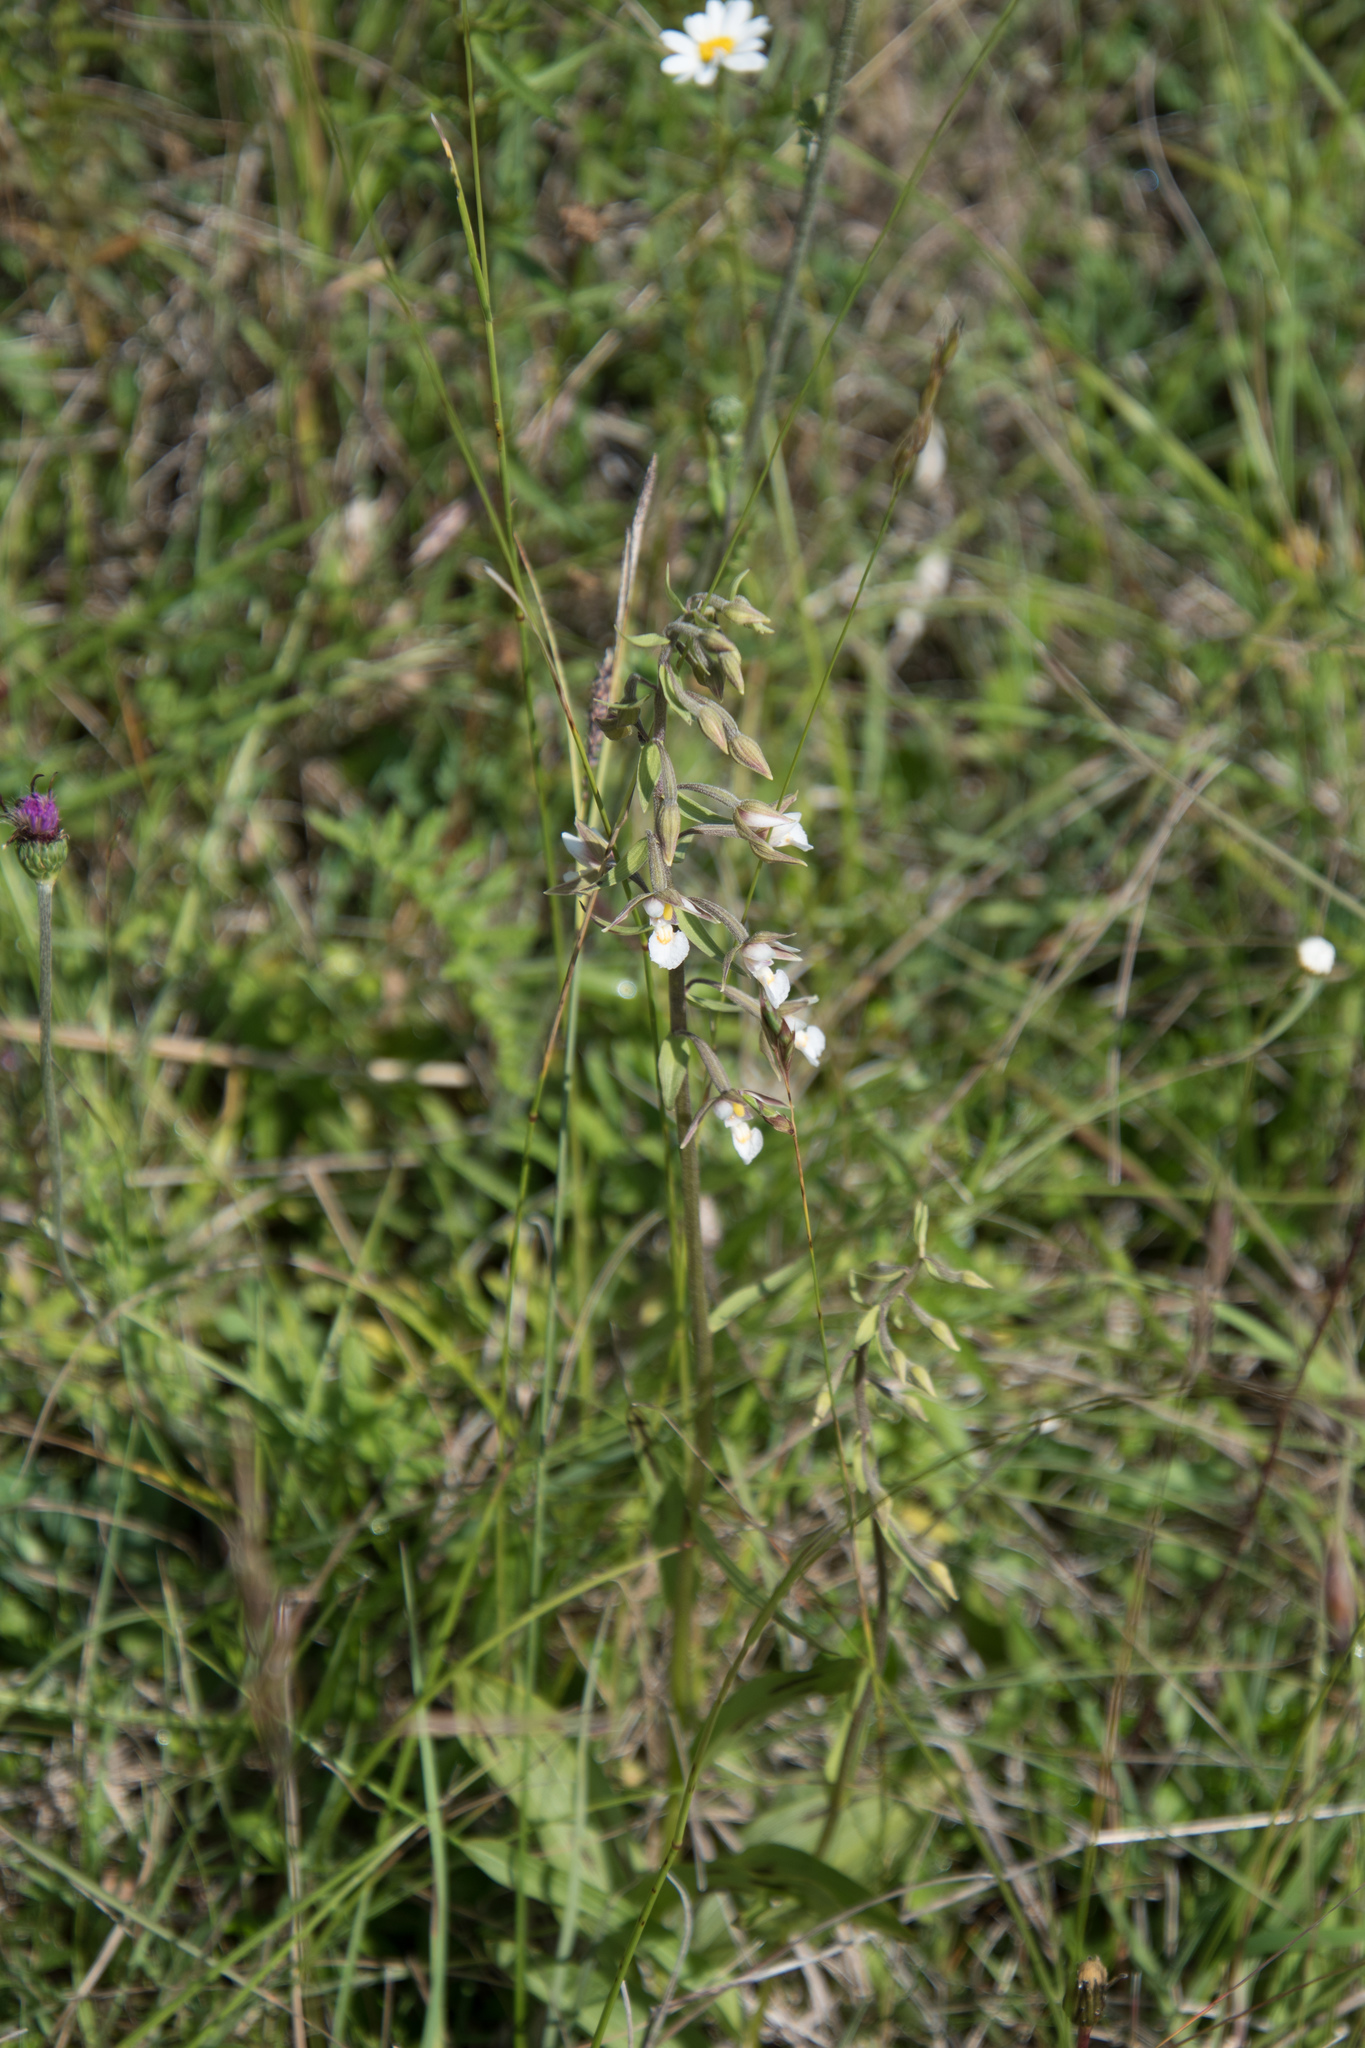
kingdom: Plantae
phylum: Tracheophyta
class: Liliopsida
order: Asparagales
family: Orchidaceae
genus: Epipactis
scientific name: Epipactis palustris
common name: Marsh helleborine
